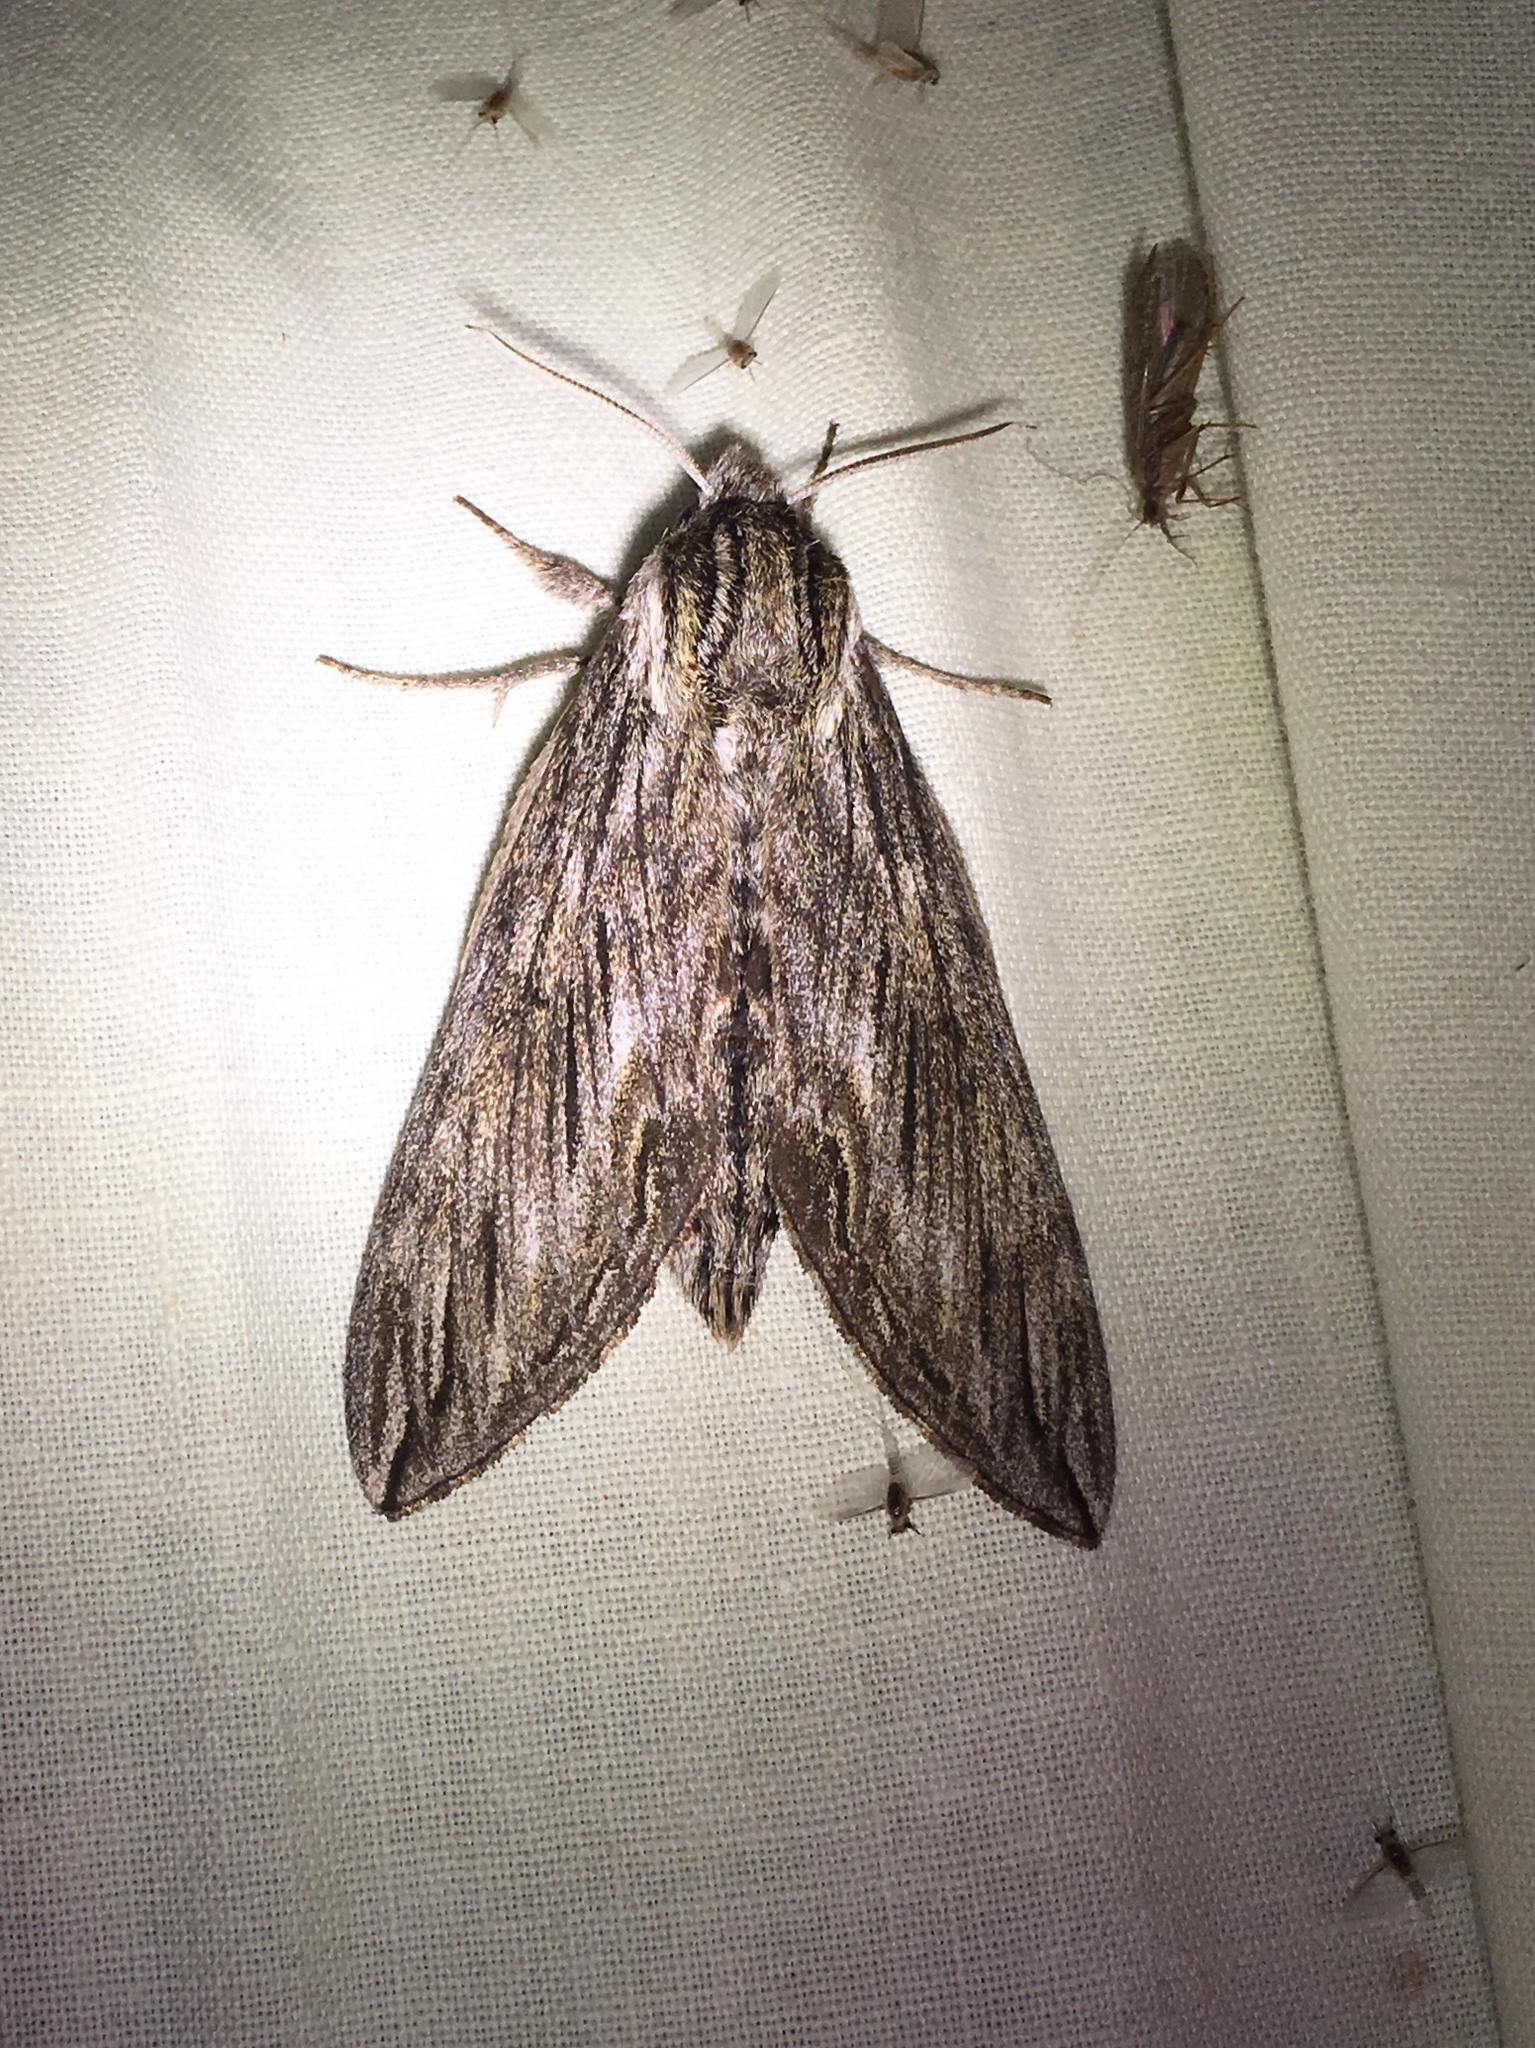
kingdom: Animalia
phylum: Arthropoda
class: Insecta
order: Lepidoptera
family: Sphingidae
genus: Sphinx
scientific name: Sphinx canadensis
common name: Canadian sphinx
